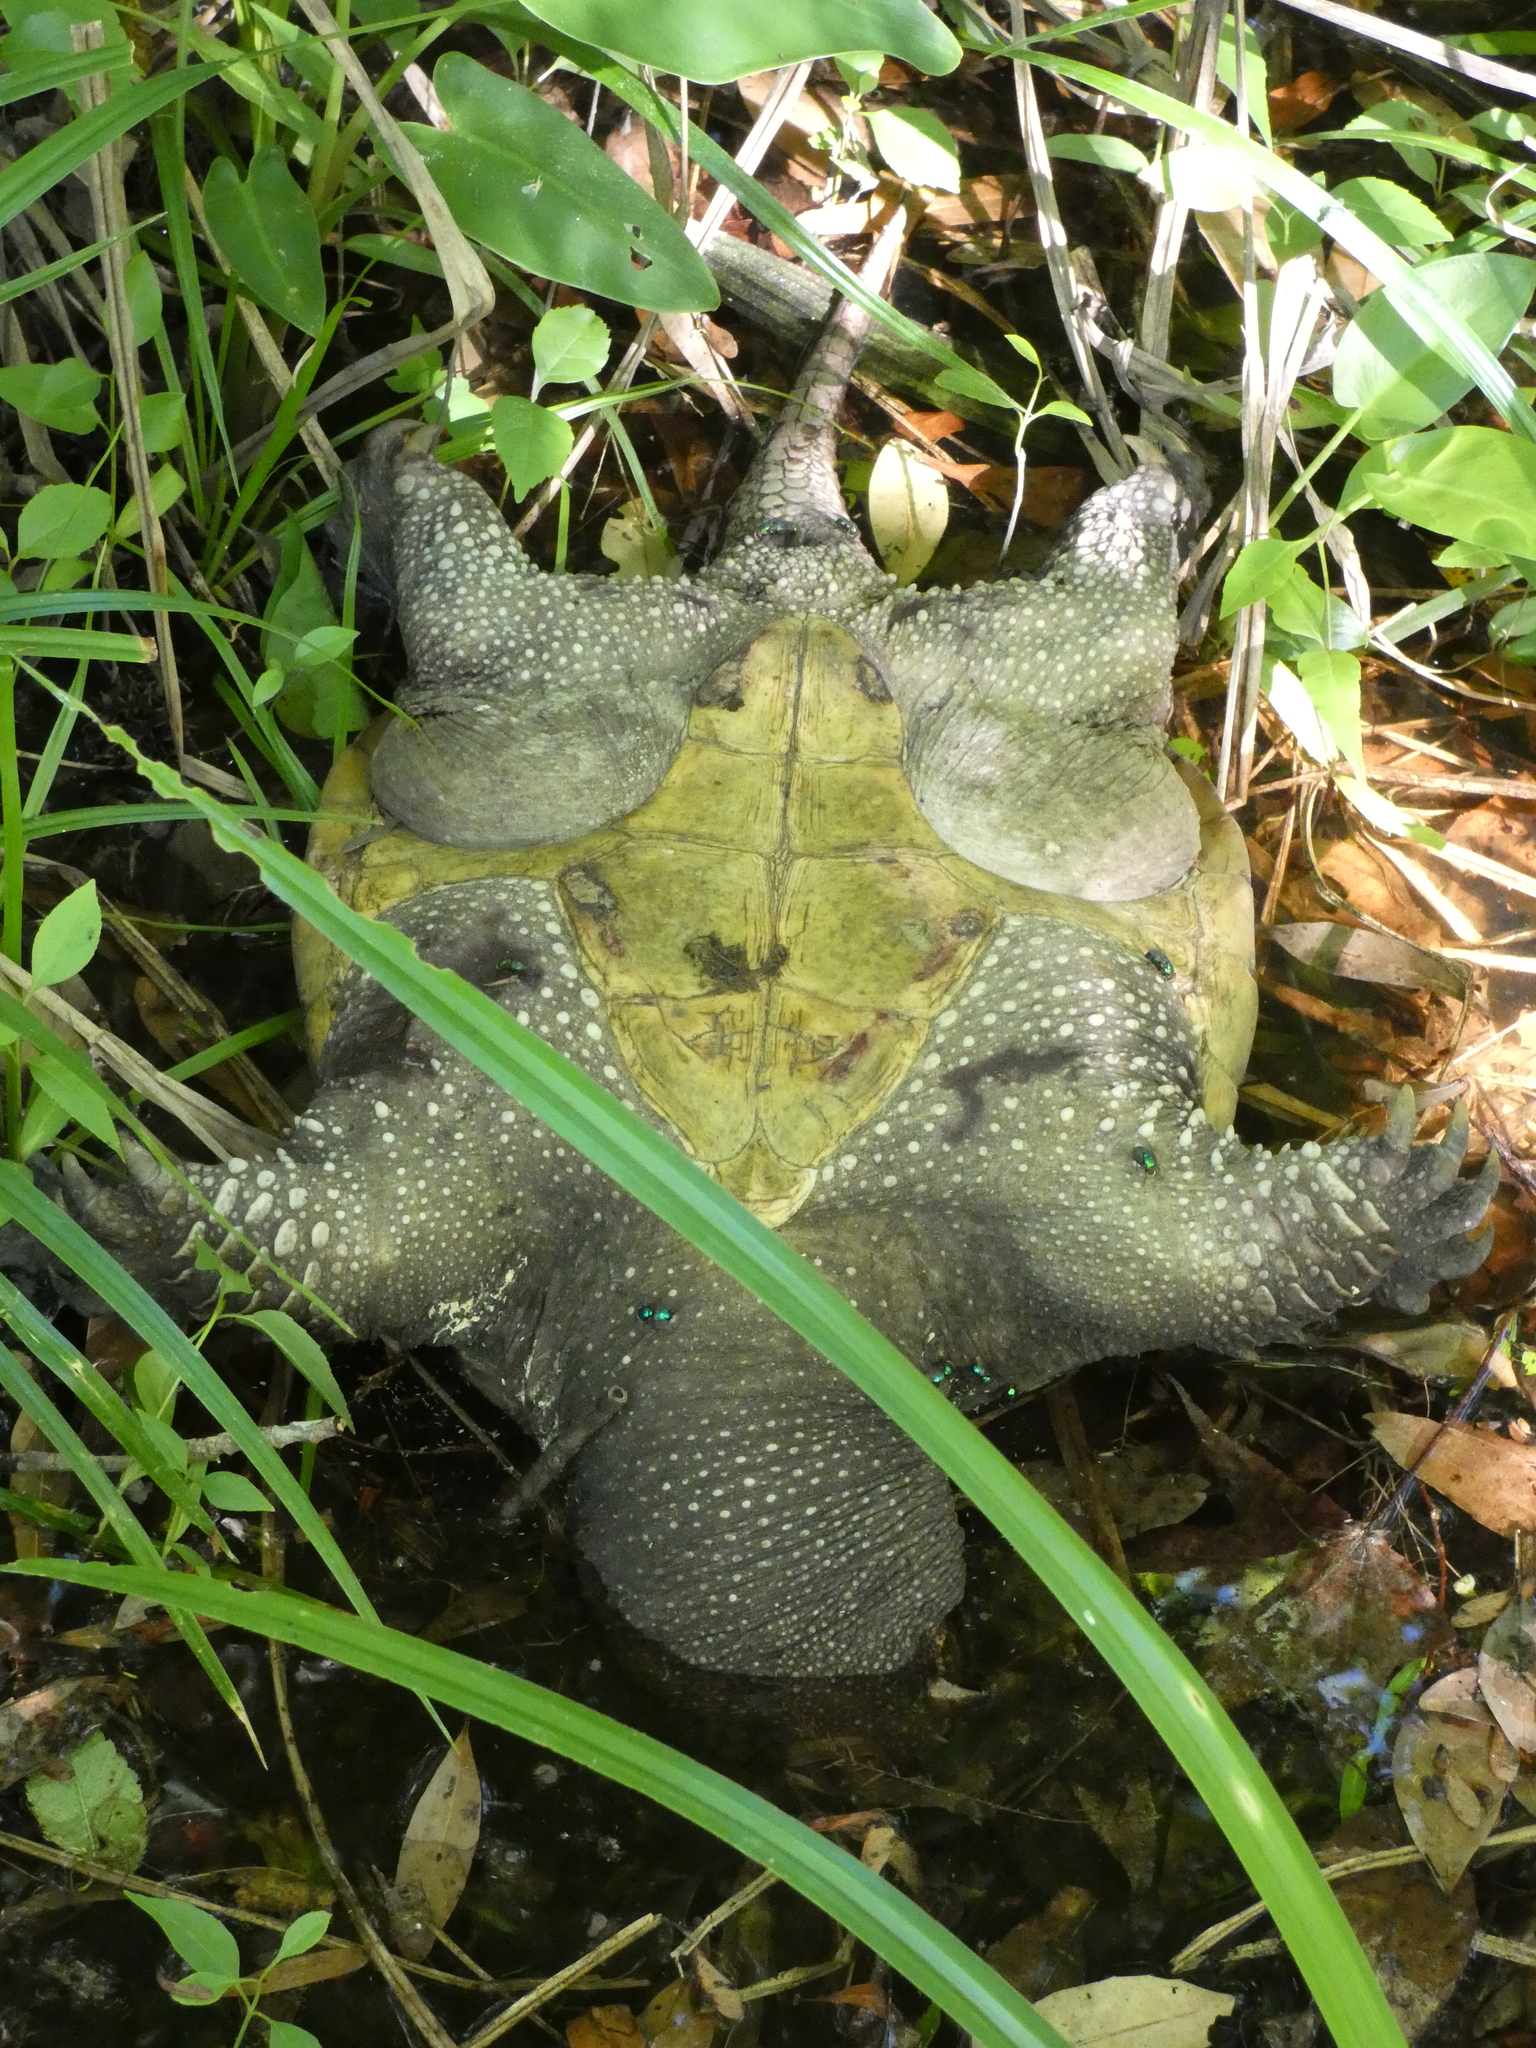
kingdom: Animalia
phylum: Chordata
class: Testudines
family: Chelydridae
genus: Chelydra
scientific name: Chelydra serpentina
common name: Common snapping turtle
